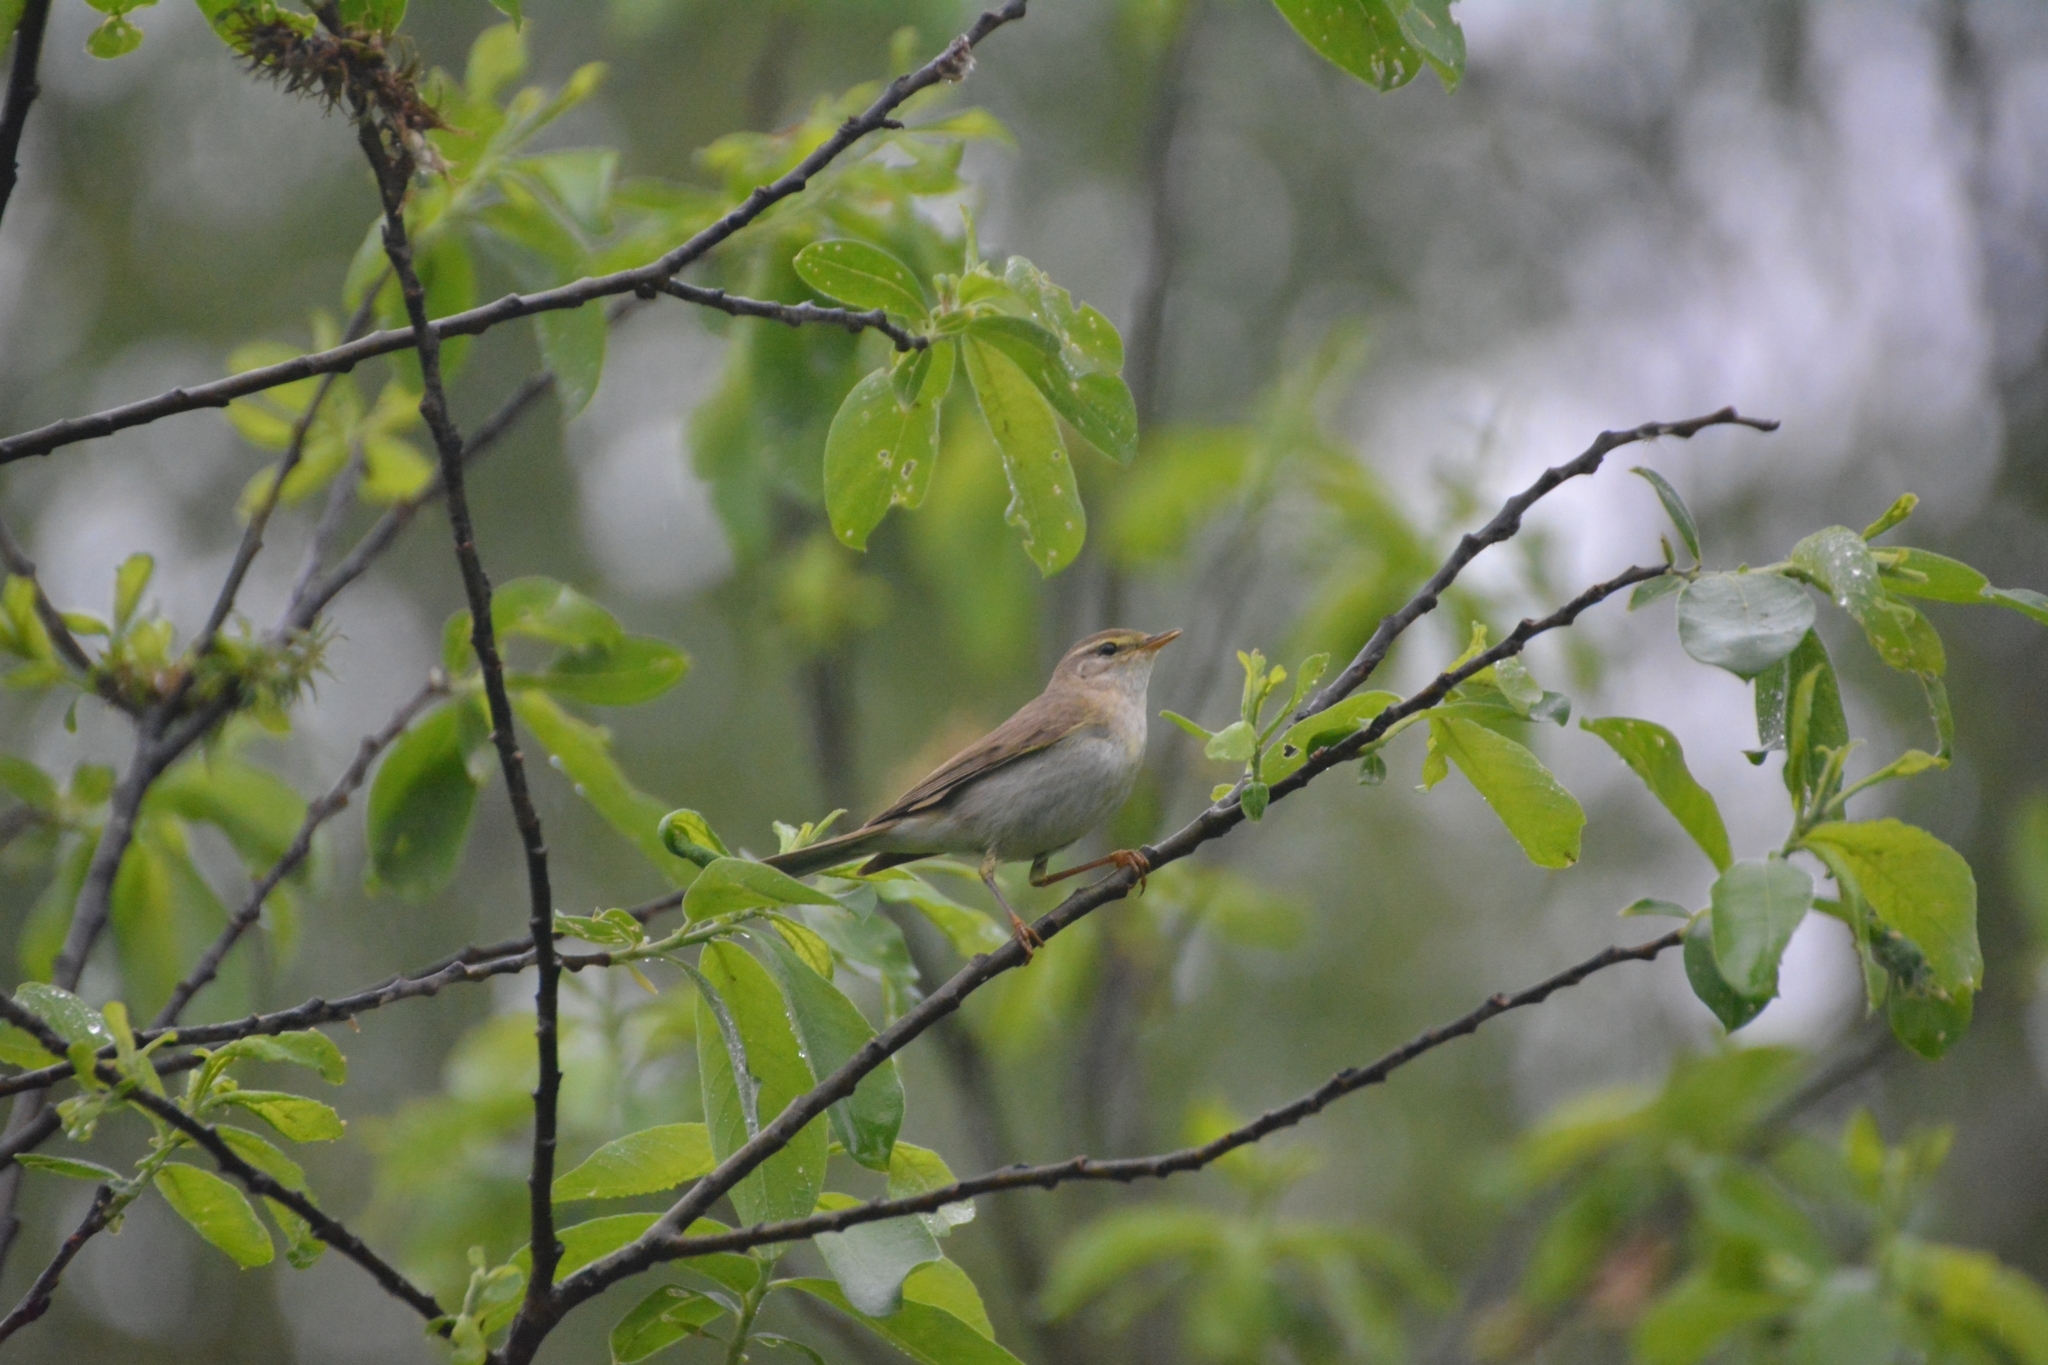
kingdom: Animalia
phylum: Chordata
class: Aves
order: Passeriformes
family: Phylloscopidae
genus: Phylloscopus
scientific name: Phylloscopus trochilus
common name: Willow warbler
